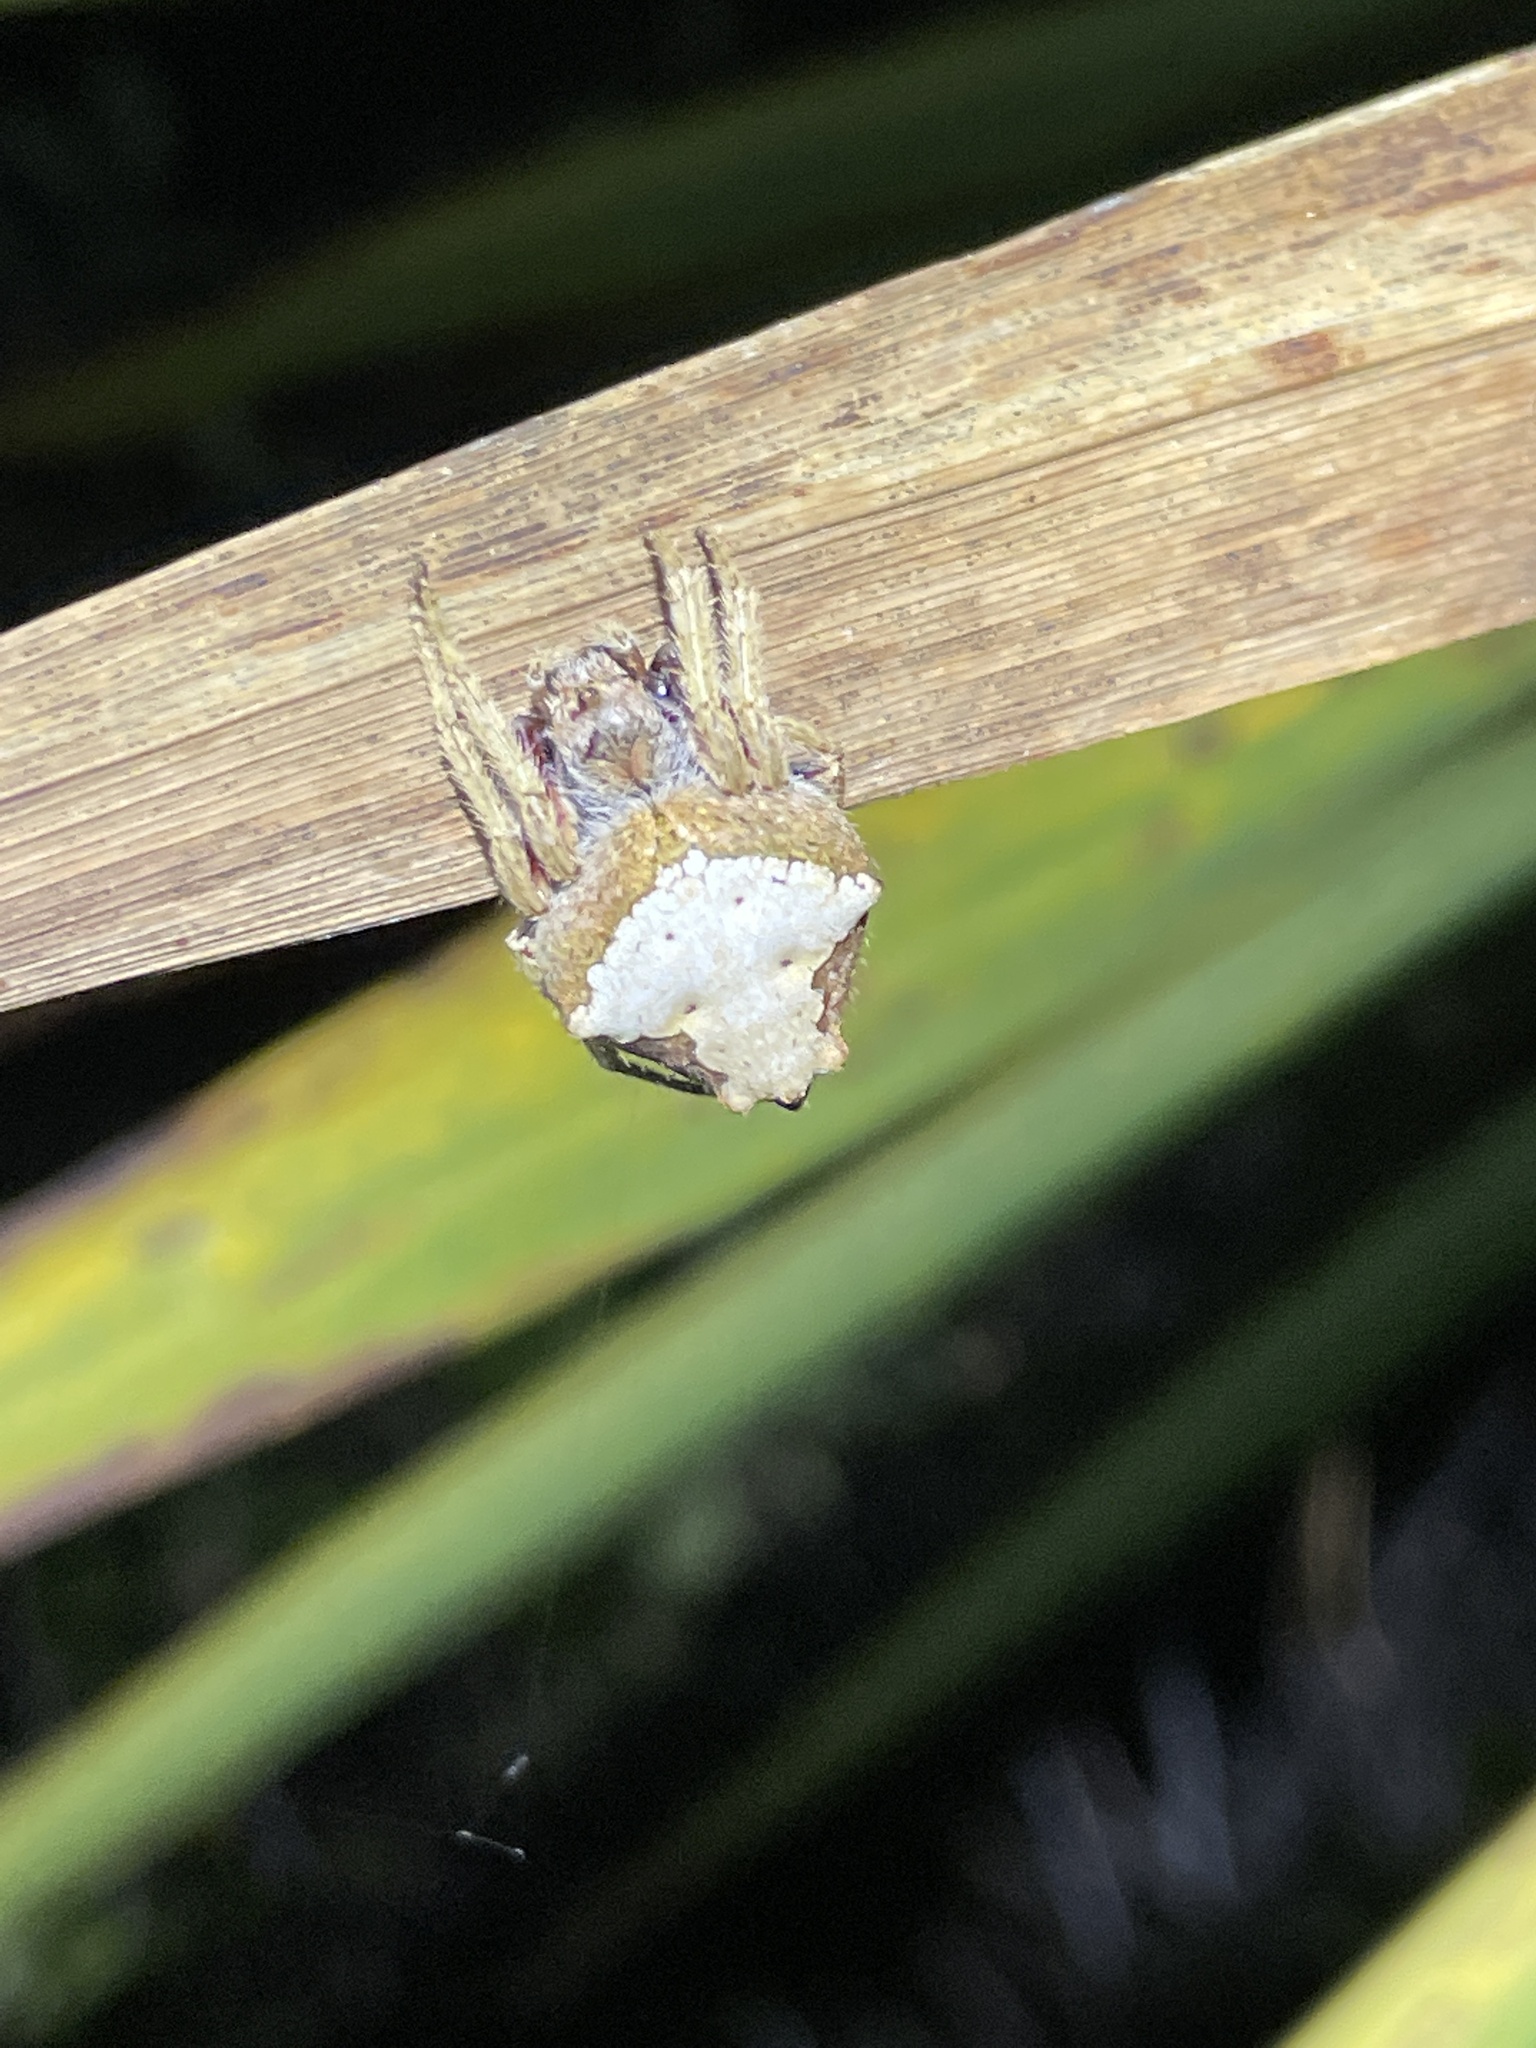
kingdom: Animalia
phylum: Arthropoda
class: Arachnida
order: Araneae
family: Araneidae
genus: Eriophora
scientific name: Eriophora pustulosa
